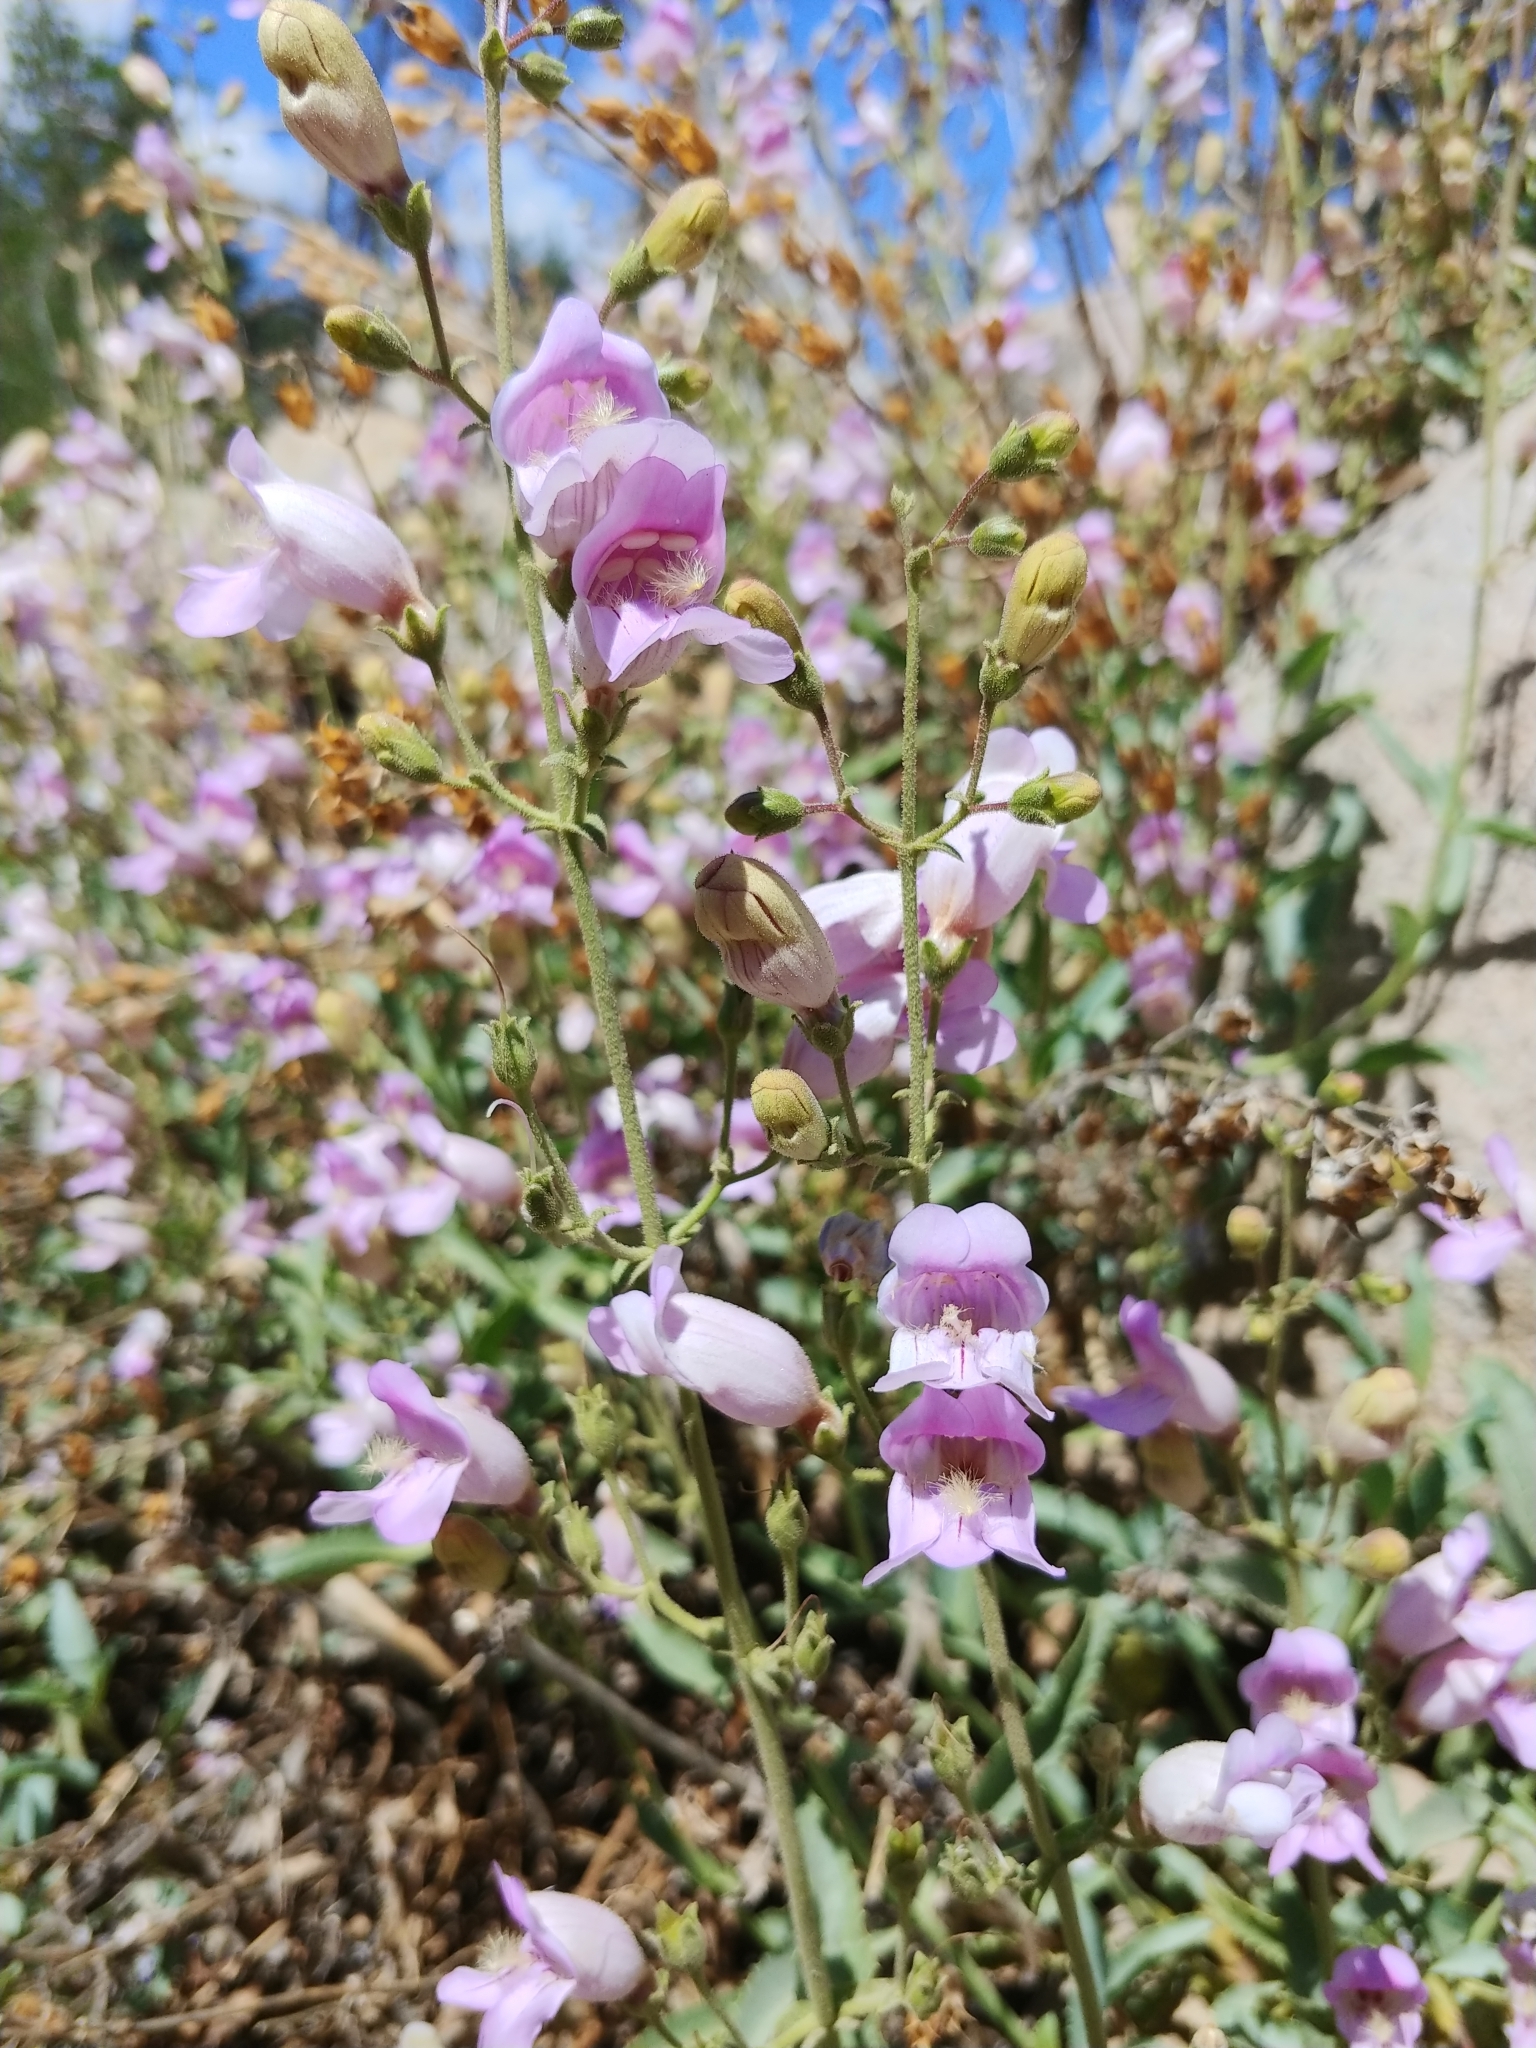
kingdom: Plantae
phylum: Tracheophyta
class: Magnoliopsida
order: Lamiales
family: Plantaginaceae
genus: Penstemon
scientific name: Penstemon grinnellii
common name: Grinnell's beardtongue
